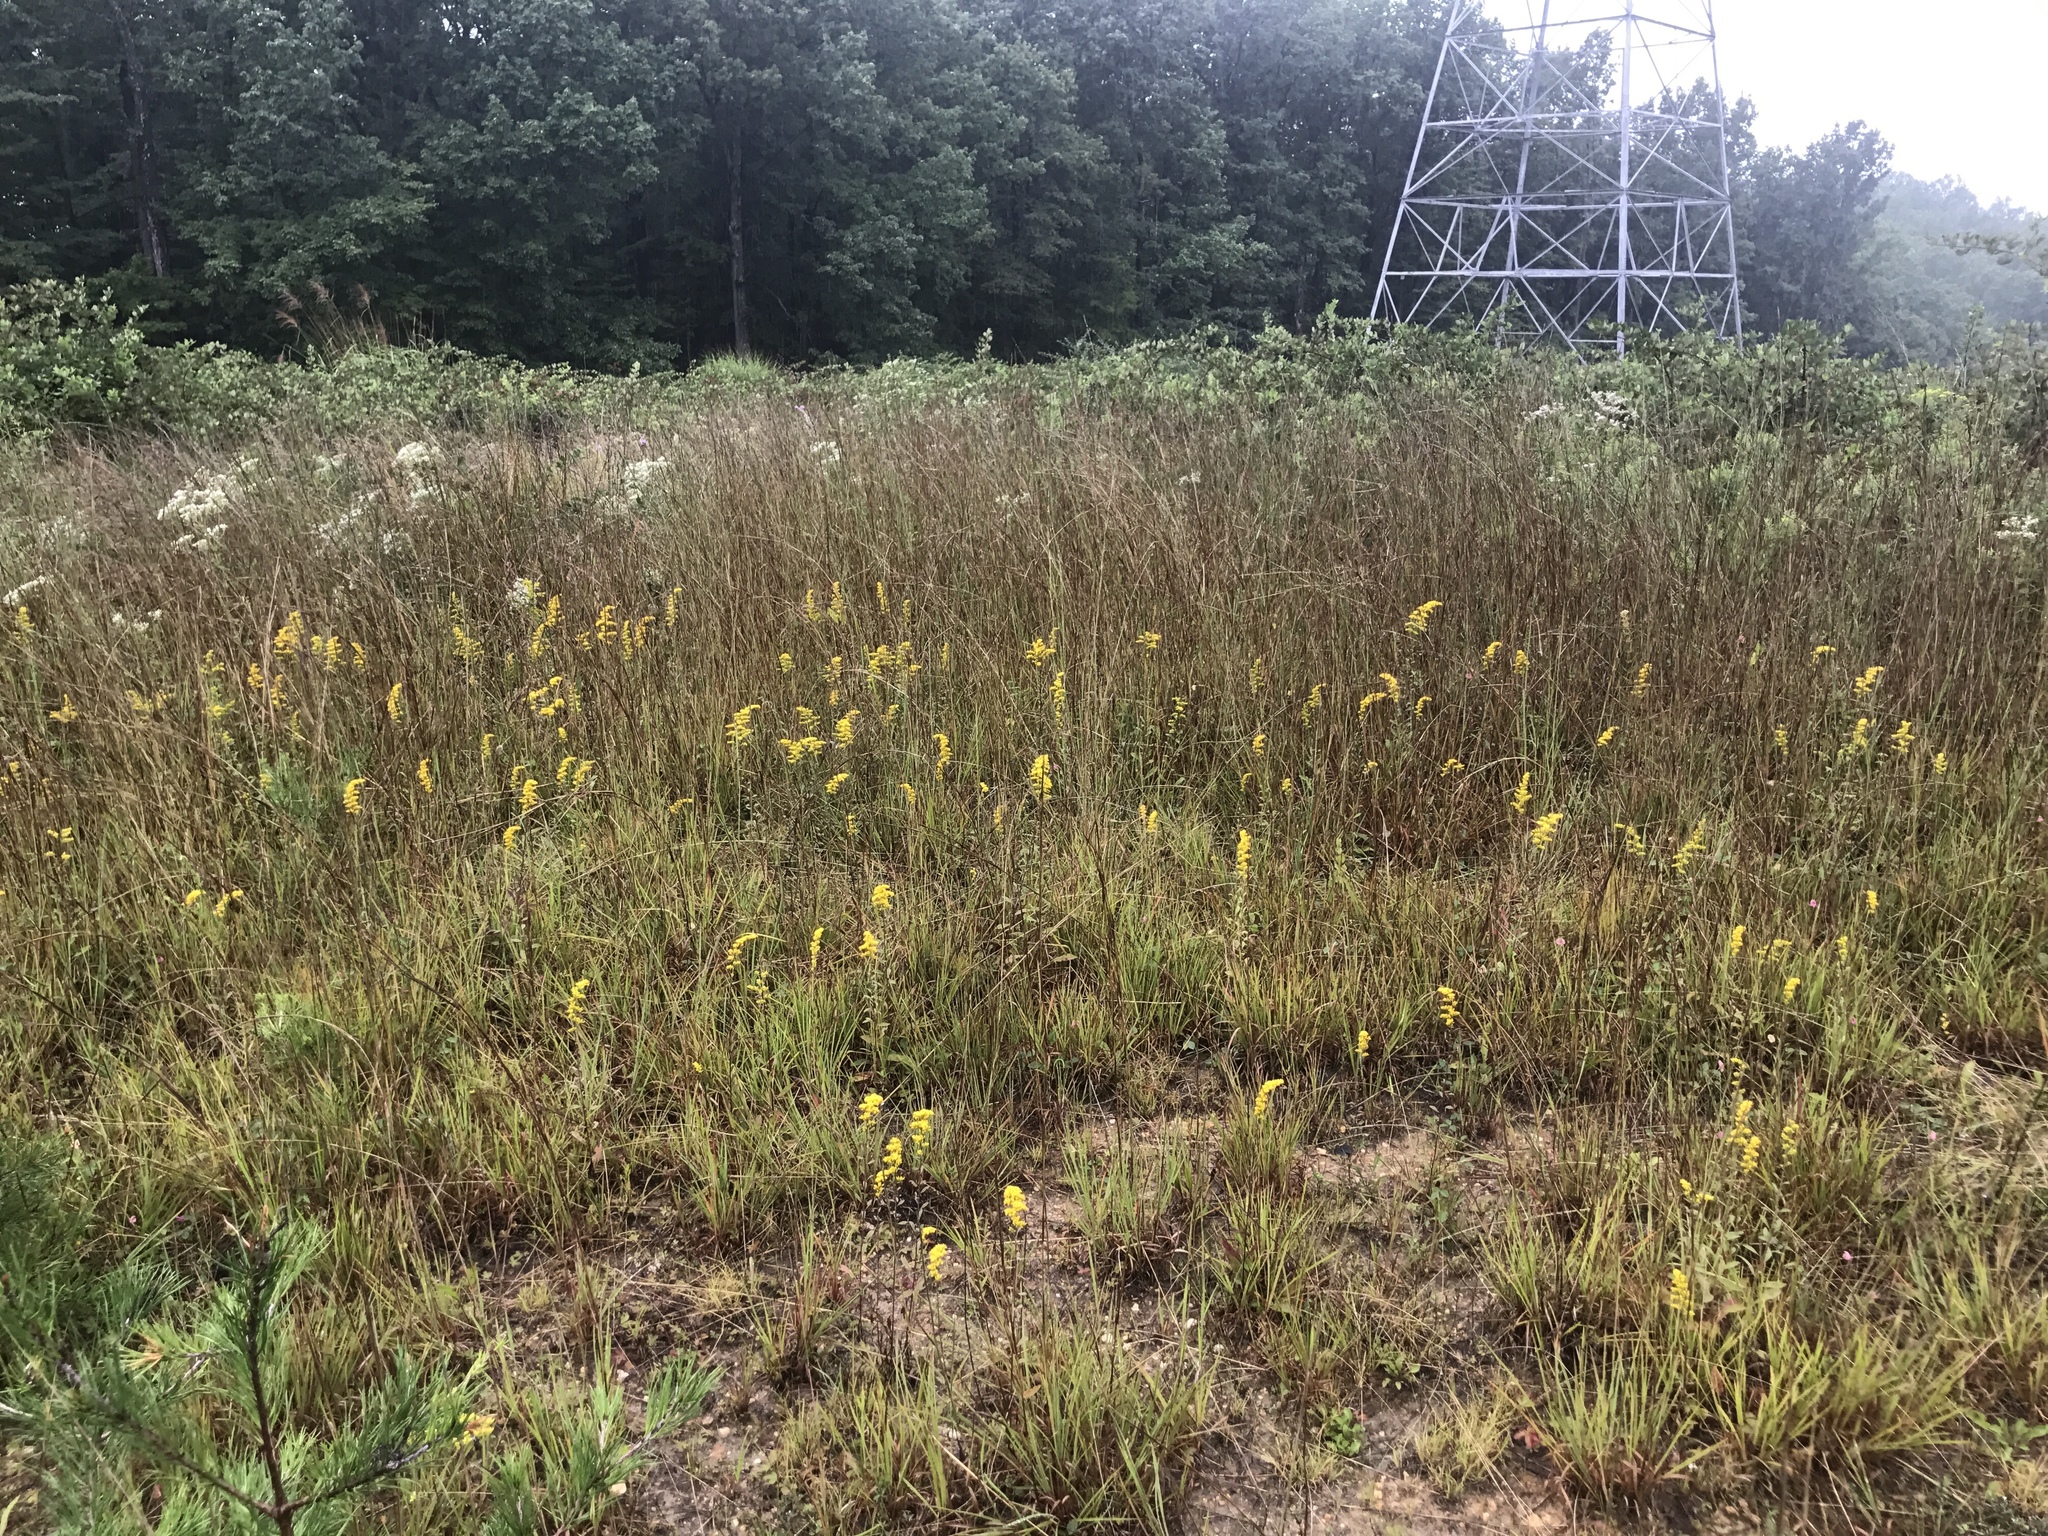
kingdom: Plantae
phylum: Tracheophyta
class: Magnoliopsida
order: Asterales
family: Asteraceae
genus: Solidago
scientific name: Solidago nemoralis
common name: Grey goldenrod
